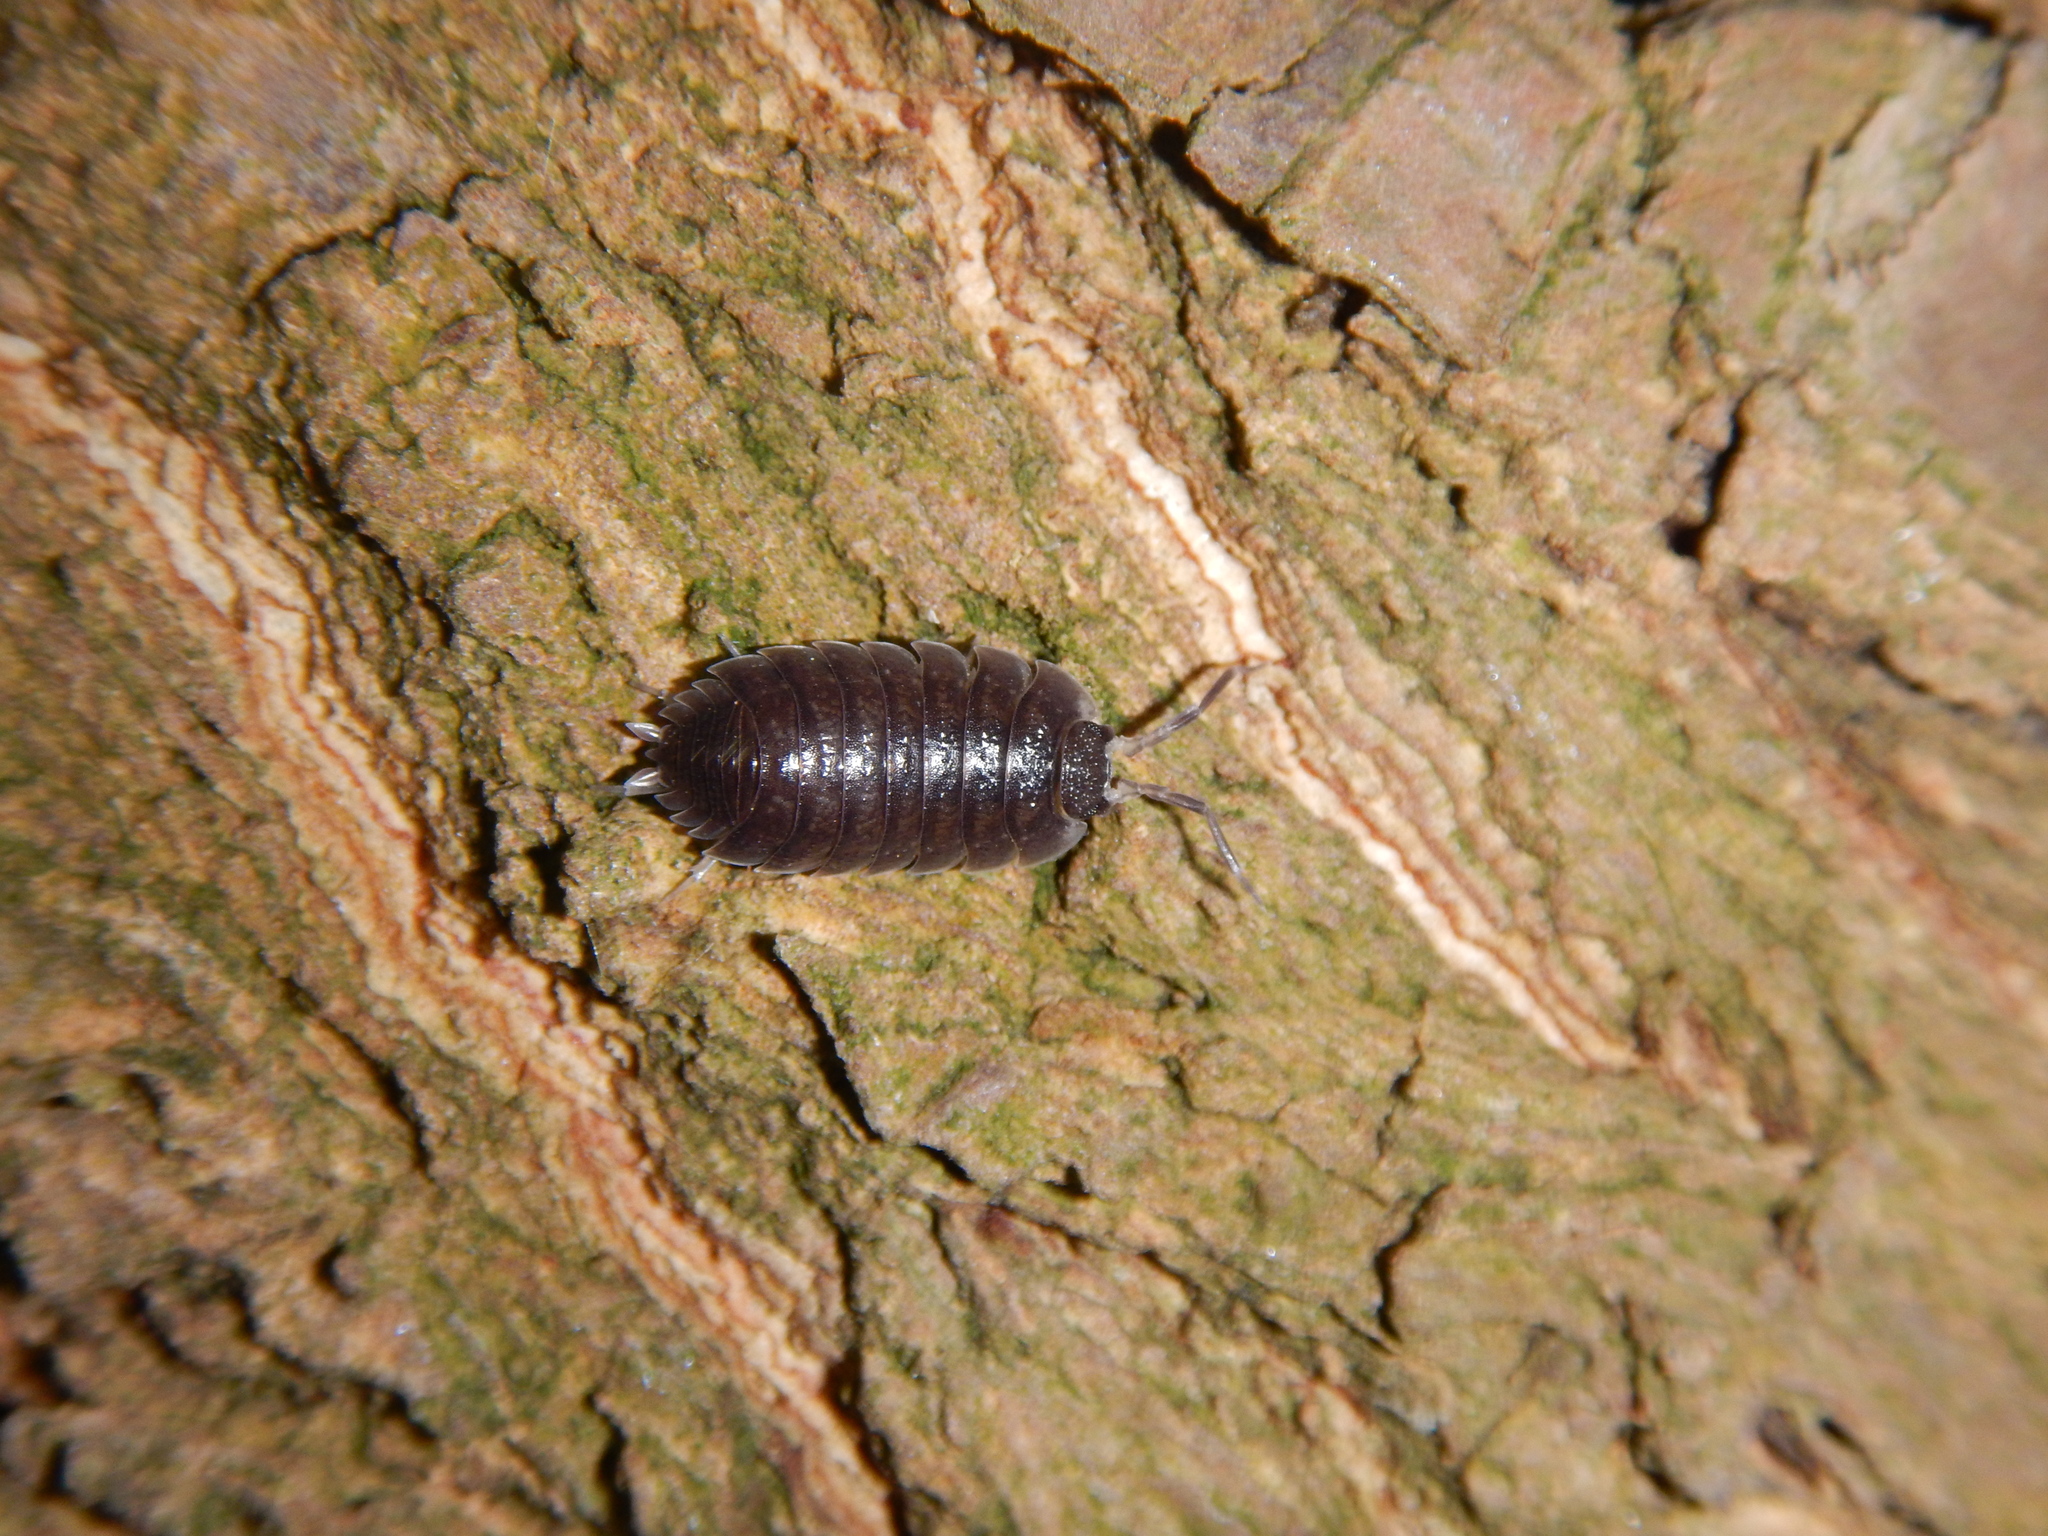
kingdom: Animalia
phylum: Arthropoda
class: Malacostraca
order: Isopoda
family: Porcellionidae
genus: Porcellio
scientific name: Porcellio obsoletus
